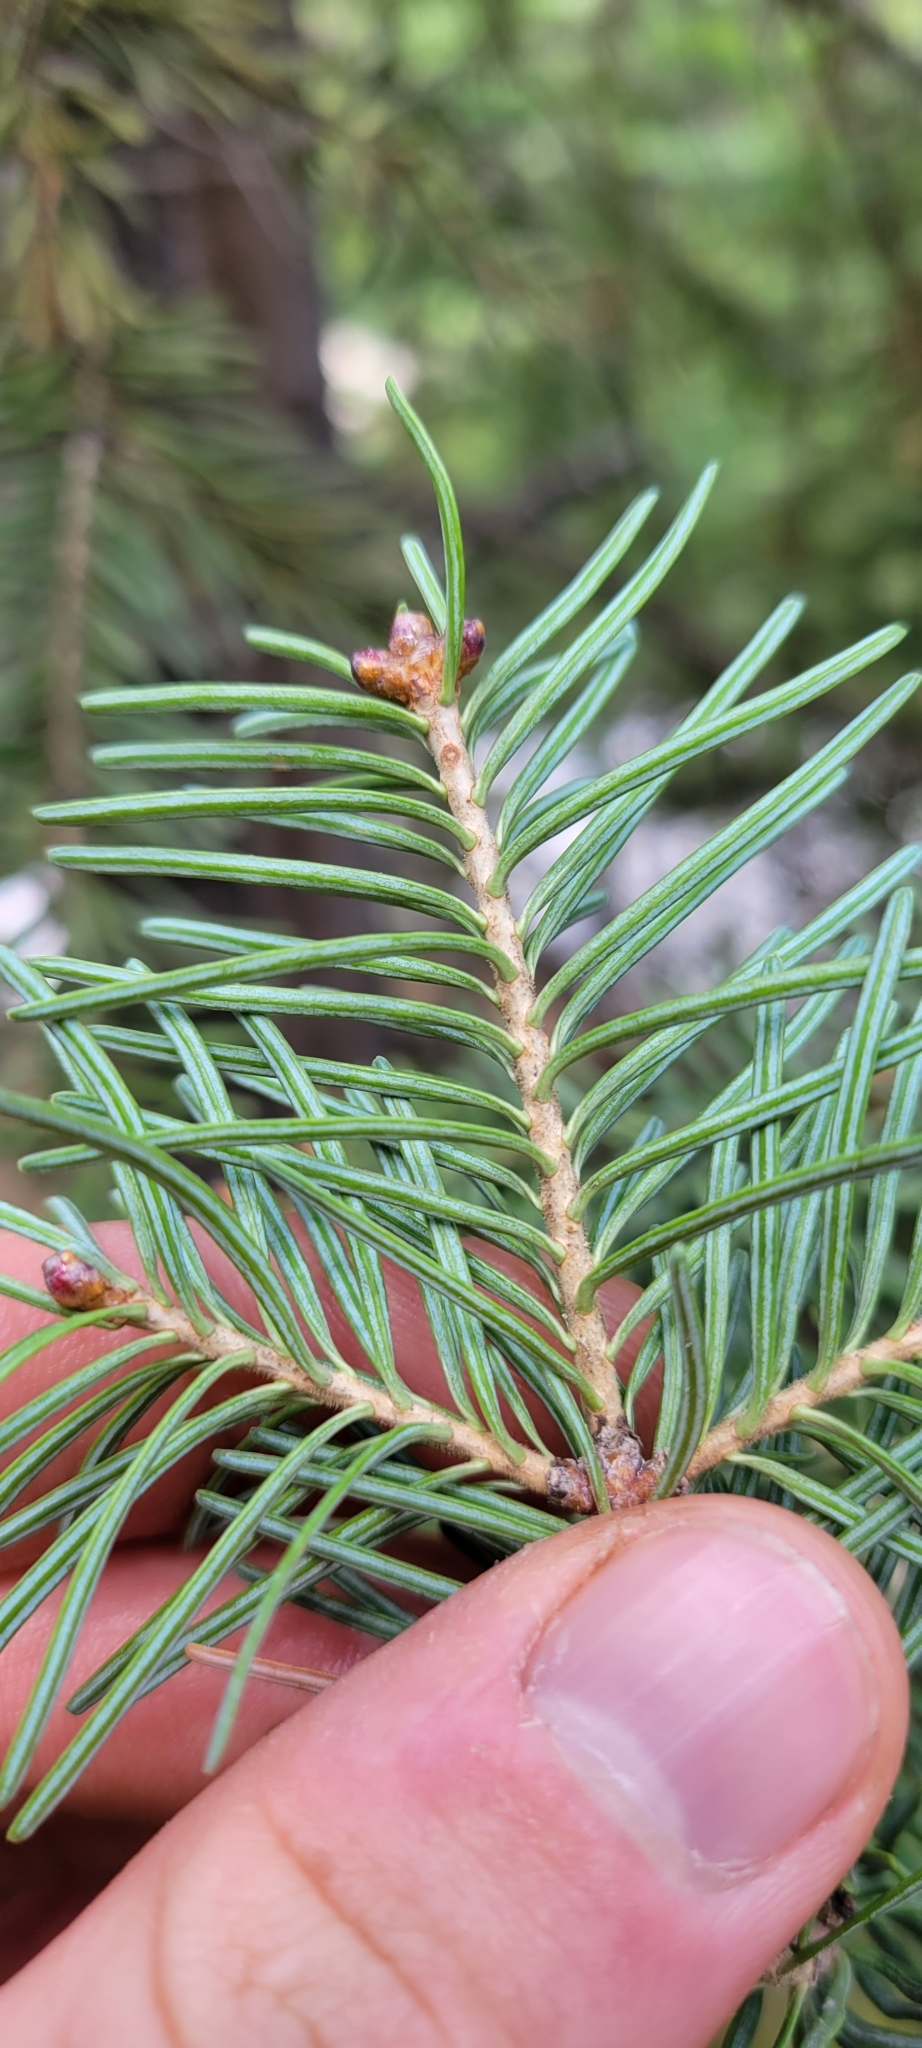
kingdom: Plantae
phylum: Tracheophyta
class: Pinopsida
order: Pinales
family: Pinaceae
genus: Abies
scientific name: Abies lasiocarpa
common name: Subalpine fir
